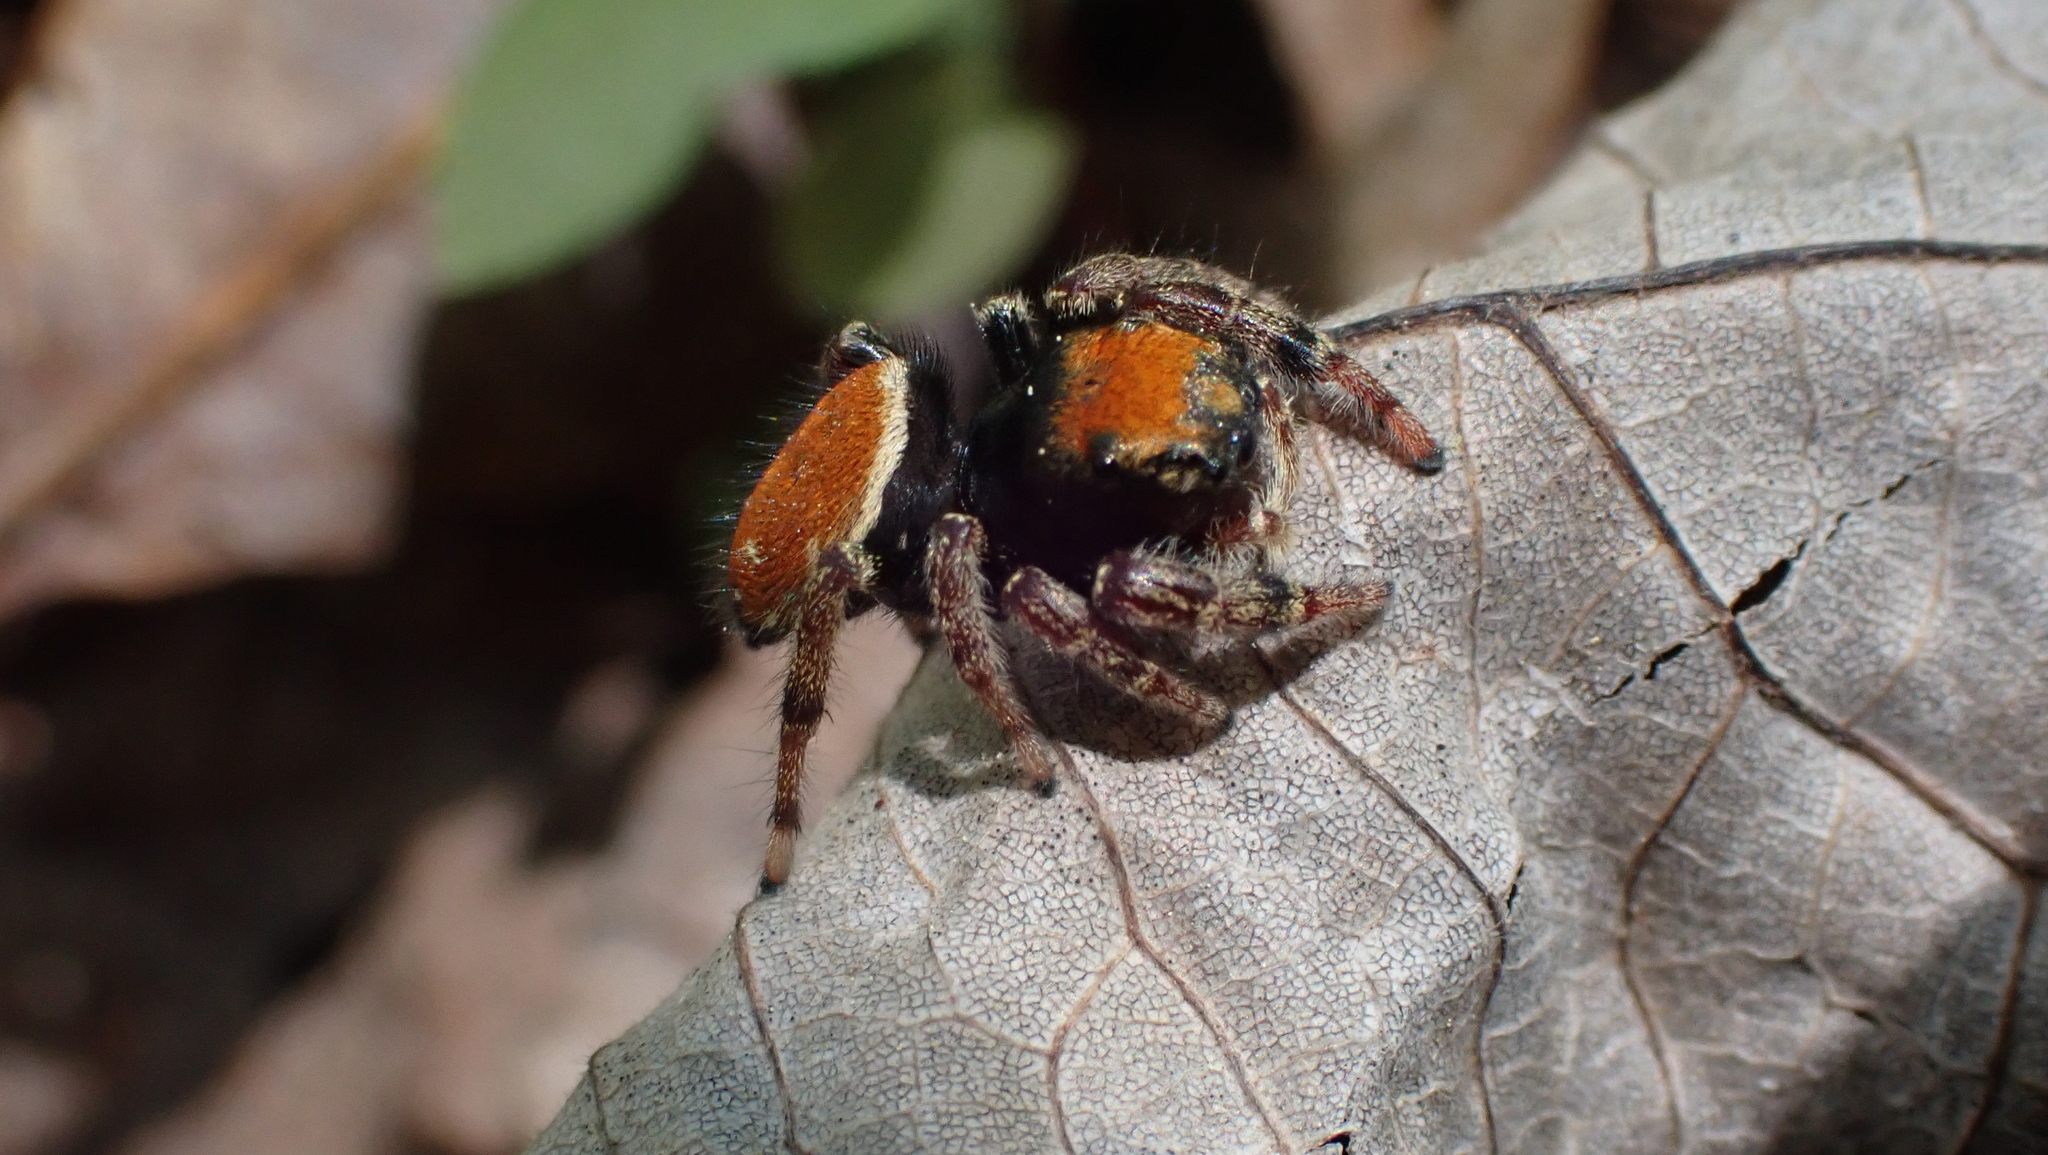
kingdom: Animalia
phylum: Arthropoda
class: Arachnida
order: Araneae
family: Salticidae
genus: Phidippus
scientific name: Phidippus whitmani
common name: Whitman's jumping spider
